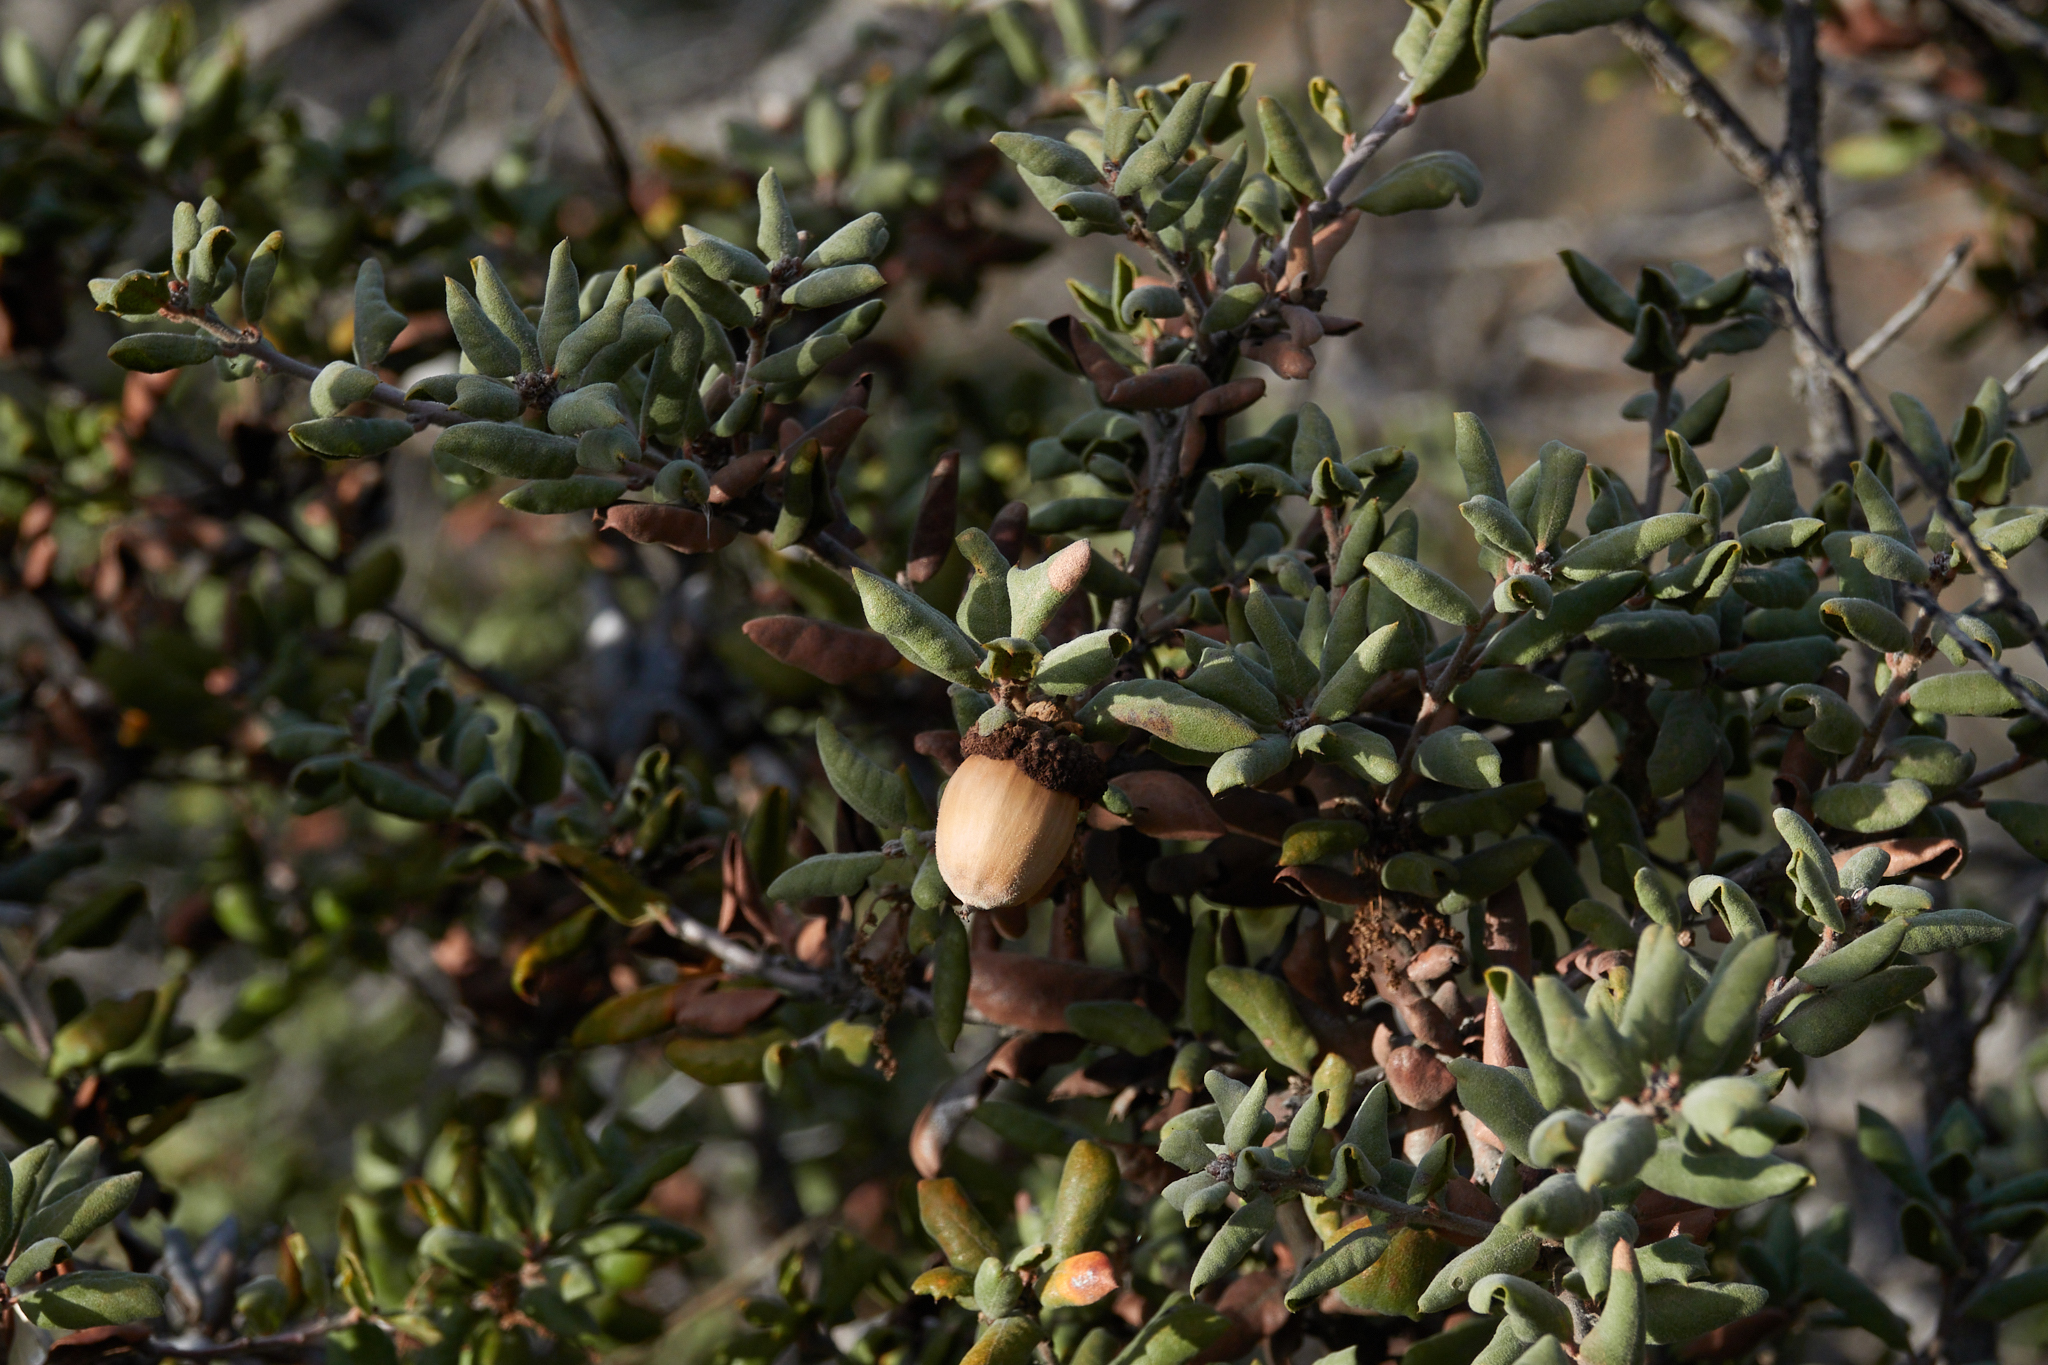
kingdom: Plantae
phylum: Tracheophyta
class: Magnoliopsida
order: Fagales
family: Fagaceae
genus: Quercus
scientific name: Quercus durata
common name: Leather oak
